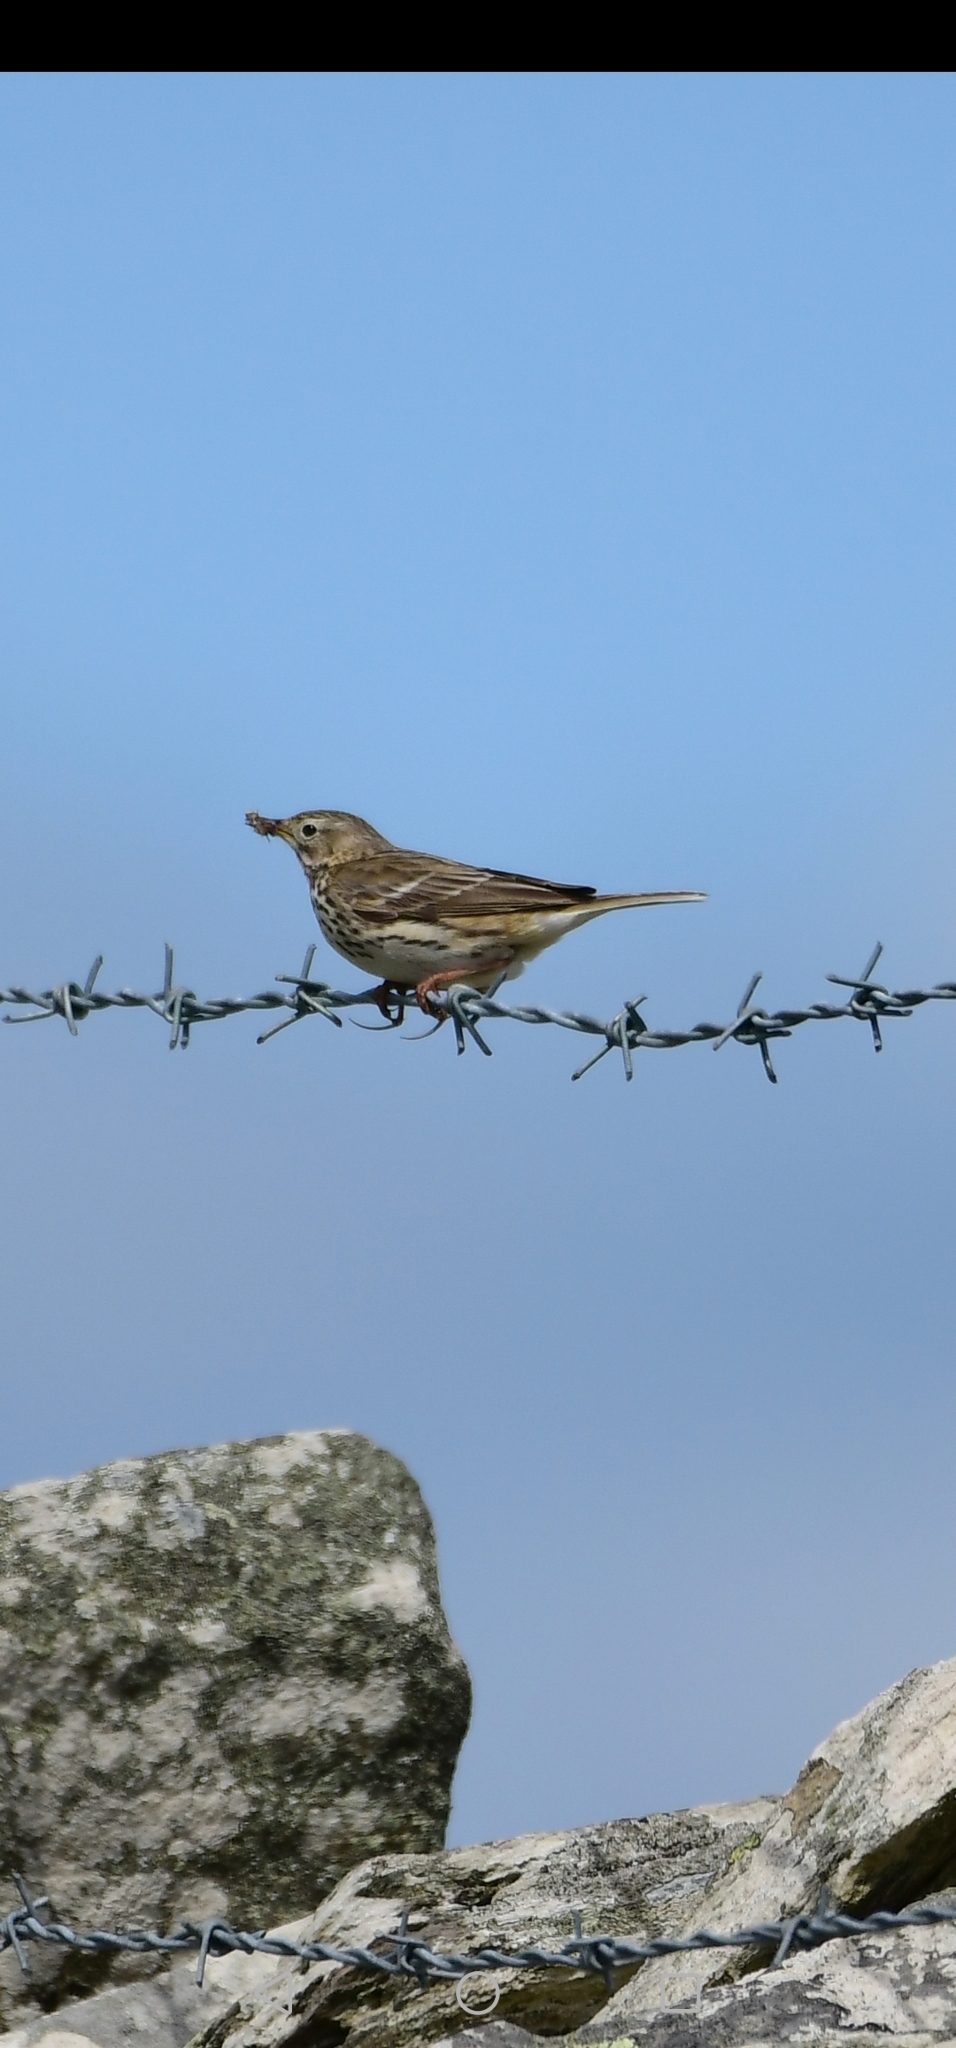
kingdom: Animalia
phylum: Chordata
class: Aves
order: Passeriformes
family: Motacillidae
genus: Anthus
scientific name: Anthus pratensis
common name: Meadow pipit
